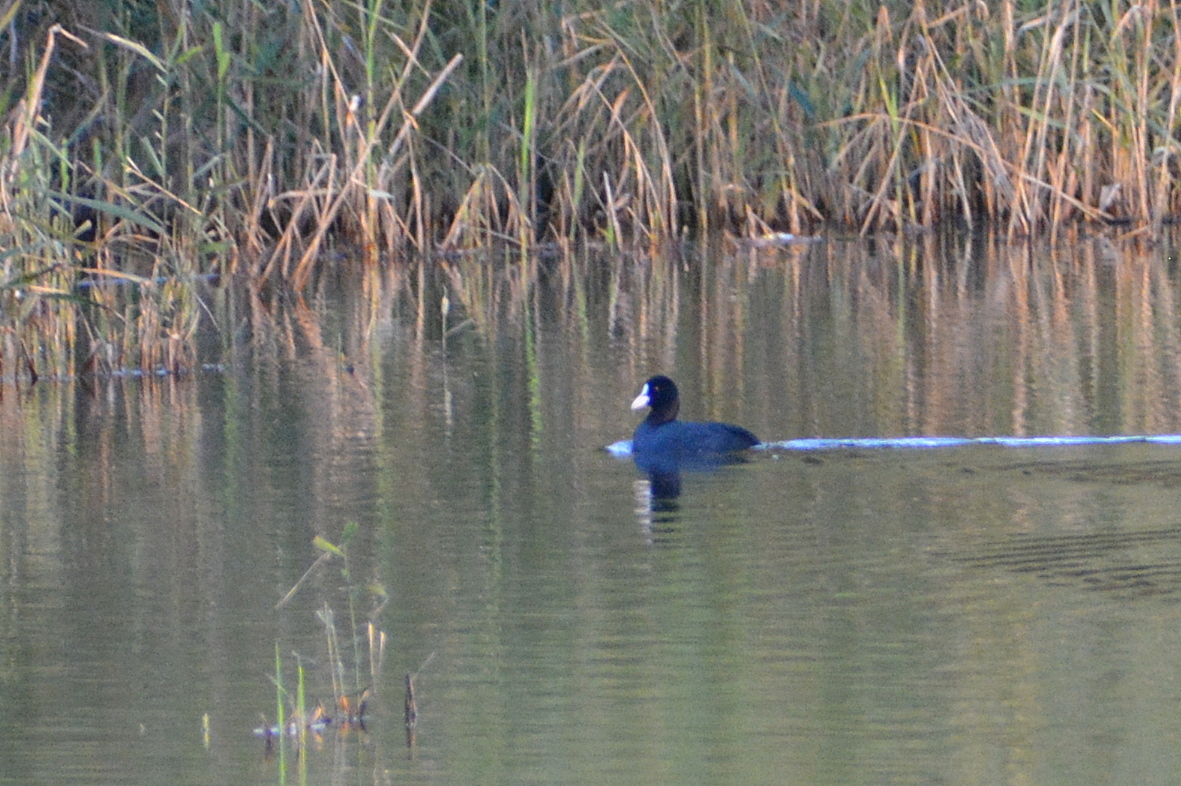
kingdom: Animalia
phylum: Chordata
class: Aves
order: Gruiformes
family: Rallidae
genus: Fulica
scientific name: Fulica atra
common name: Eurasian coot
